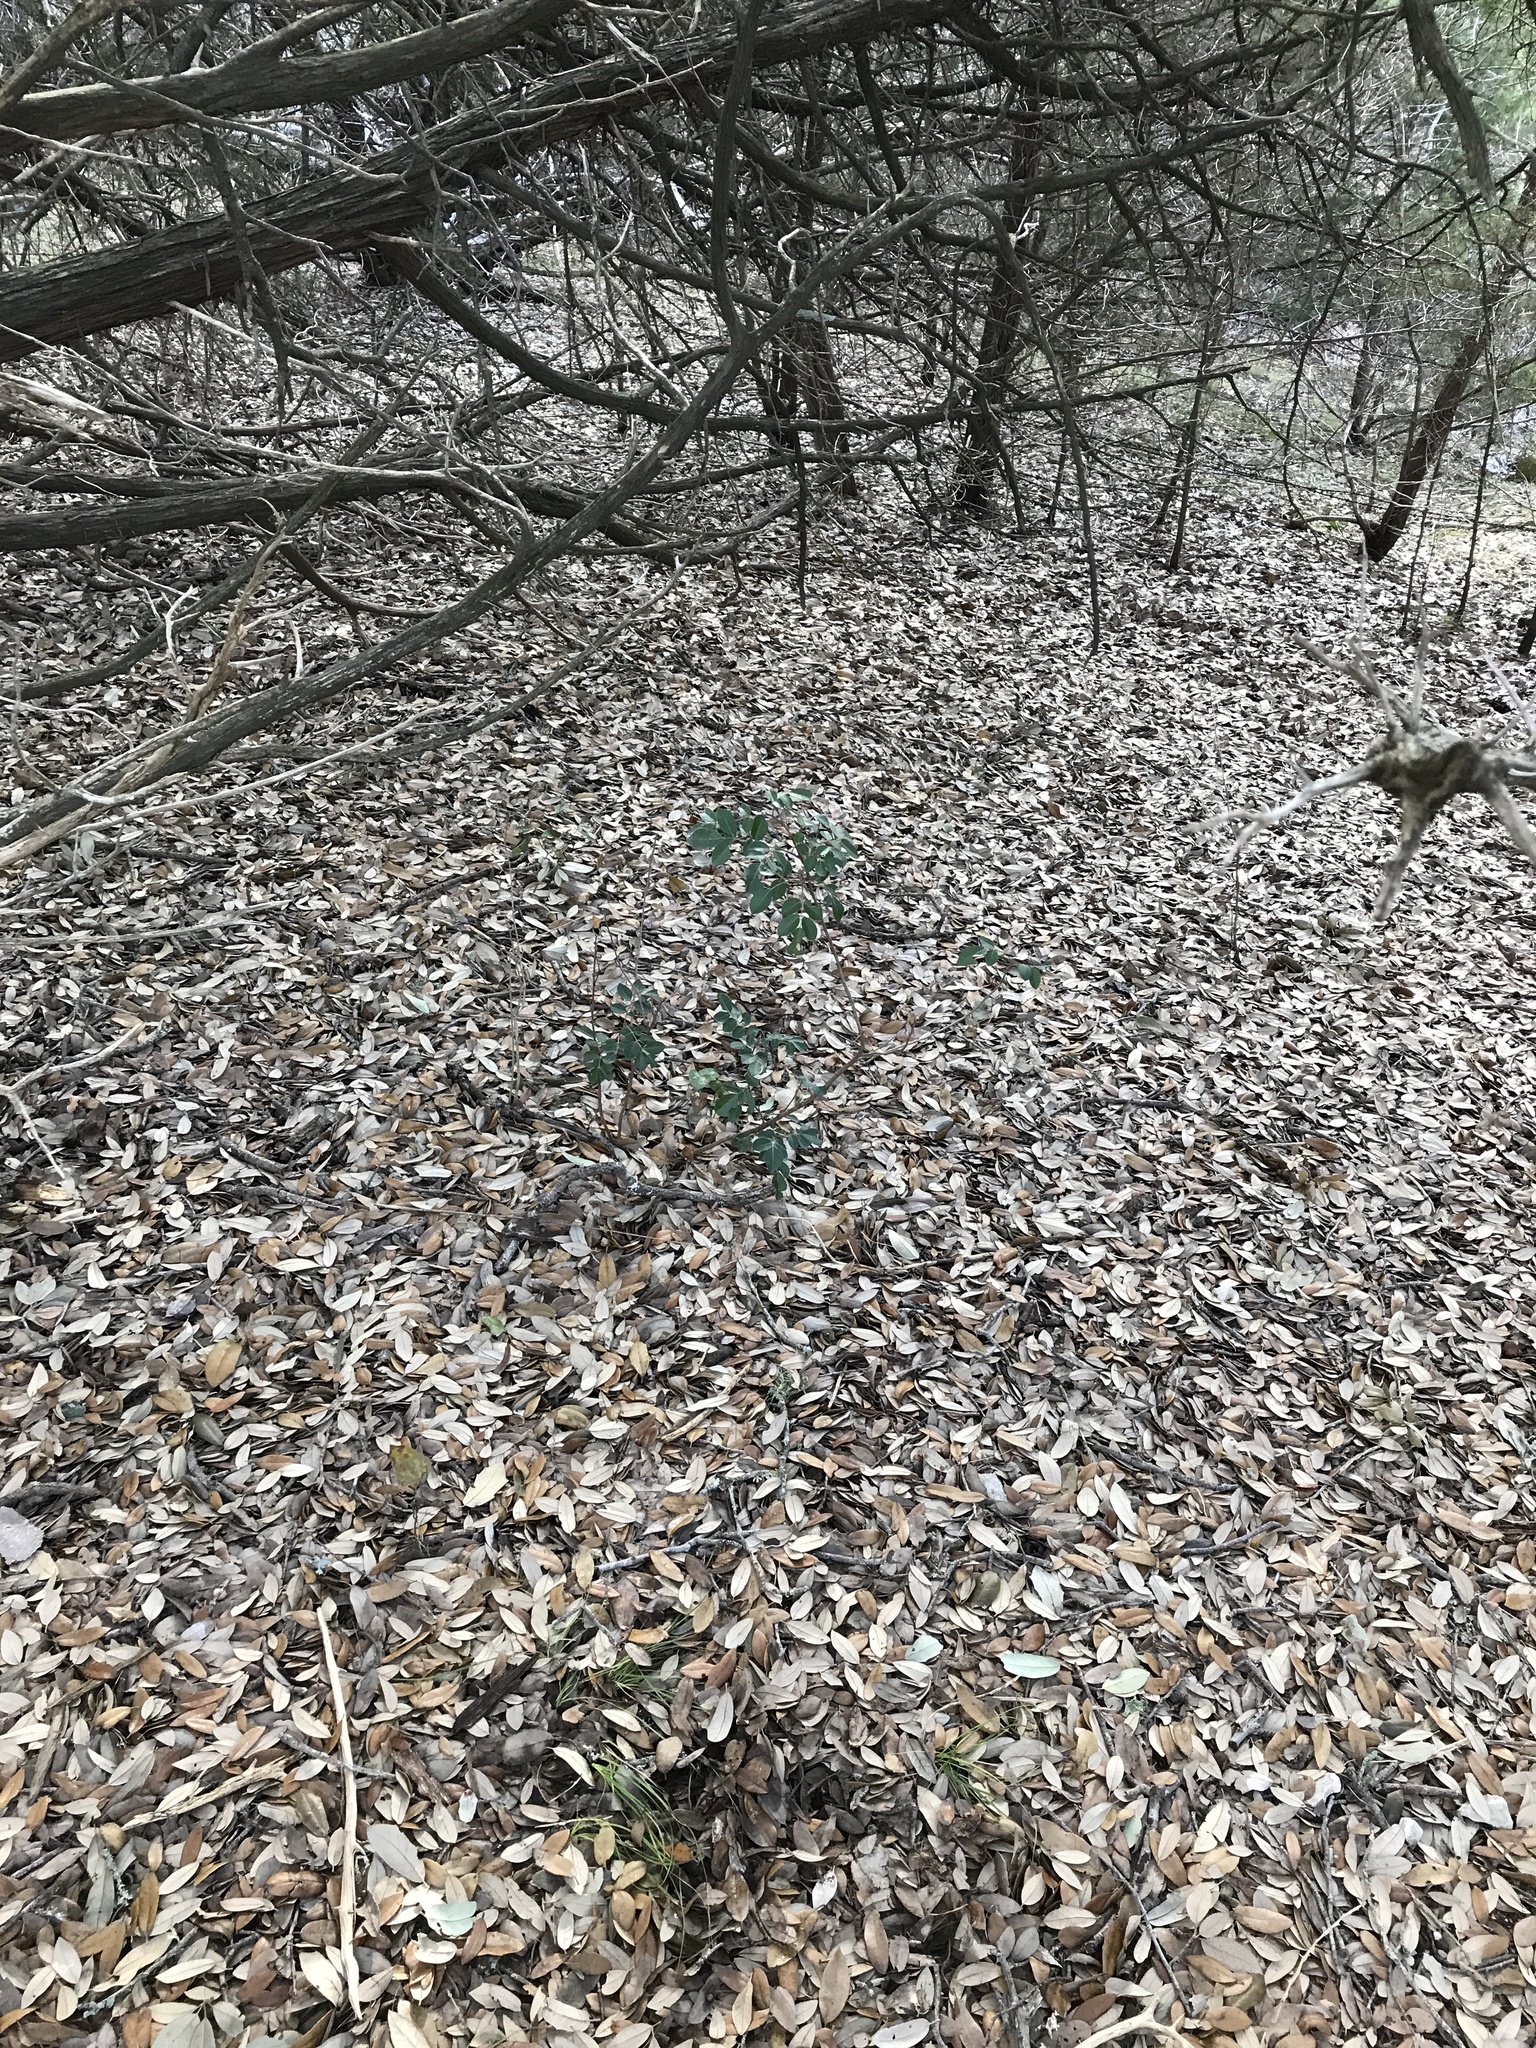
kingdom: Plantae
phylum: Tracheophyta
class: Magnoliopsida
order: Sapindales
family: Anacardiaceae
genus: Rhus
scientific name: Rhus virens
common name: Evergreen sumac
